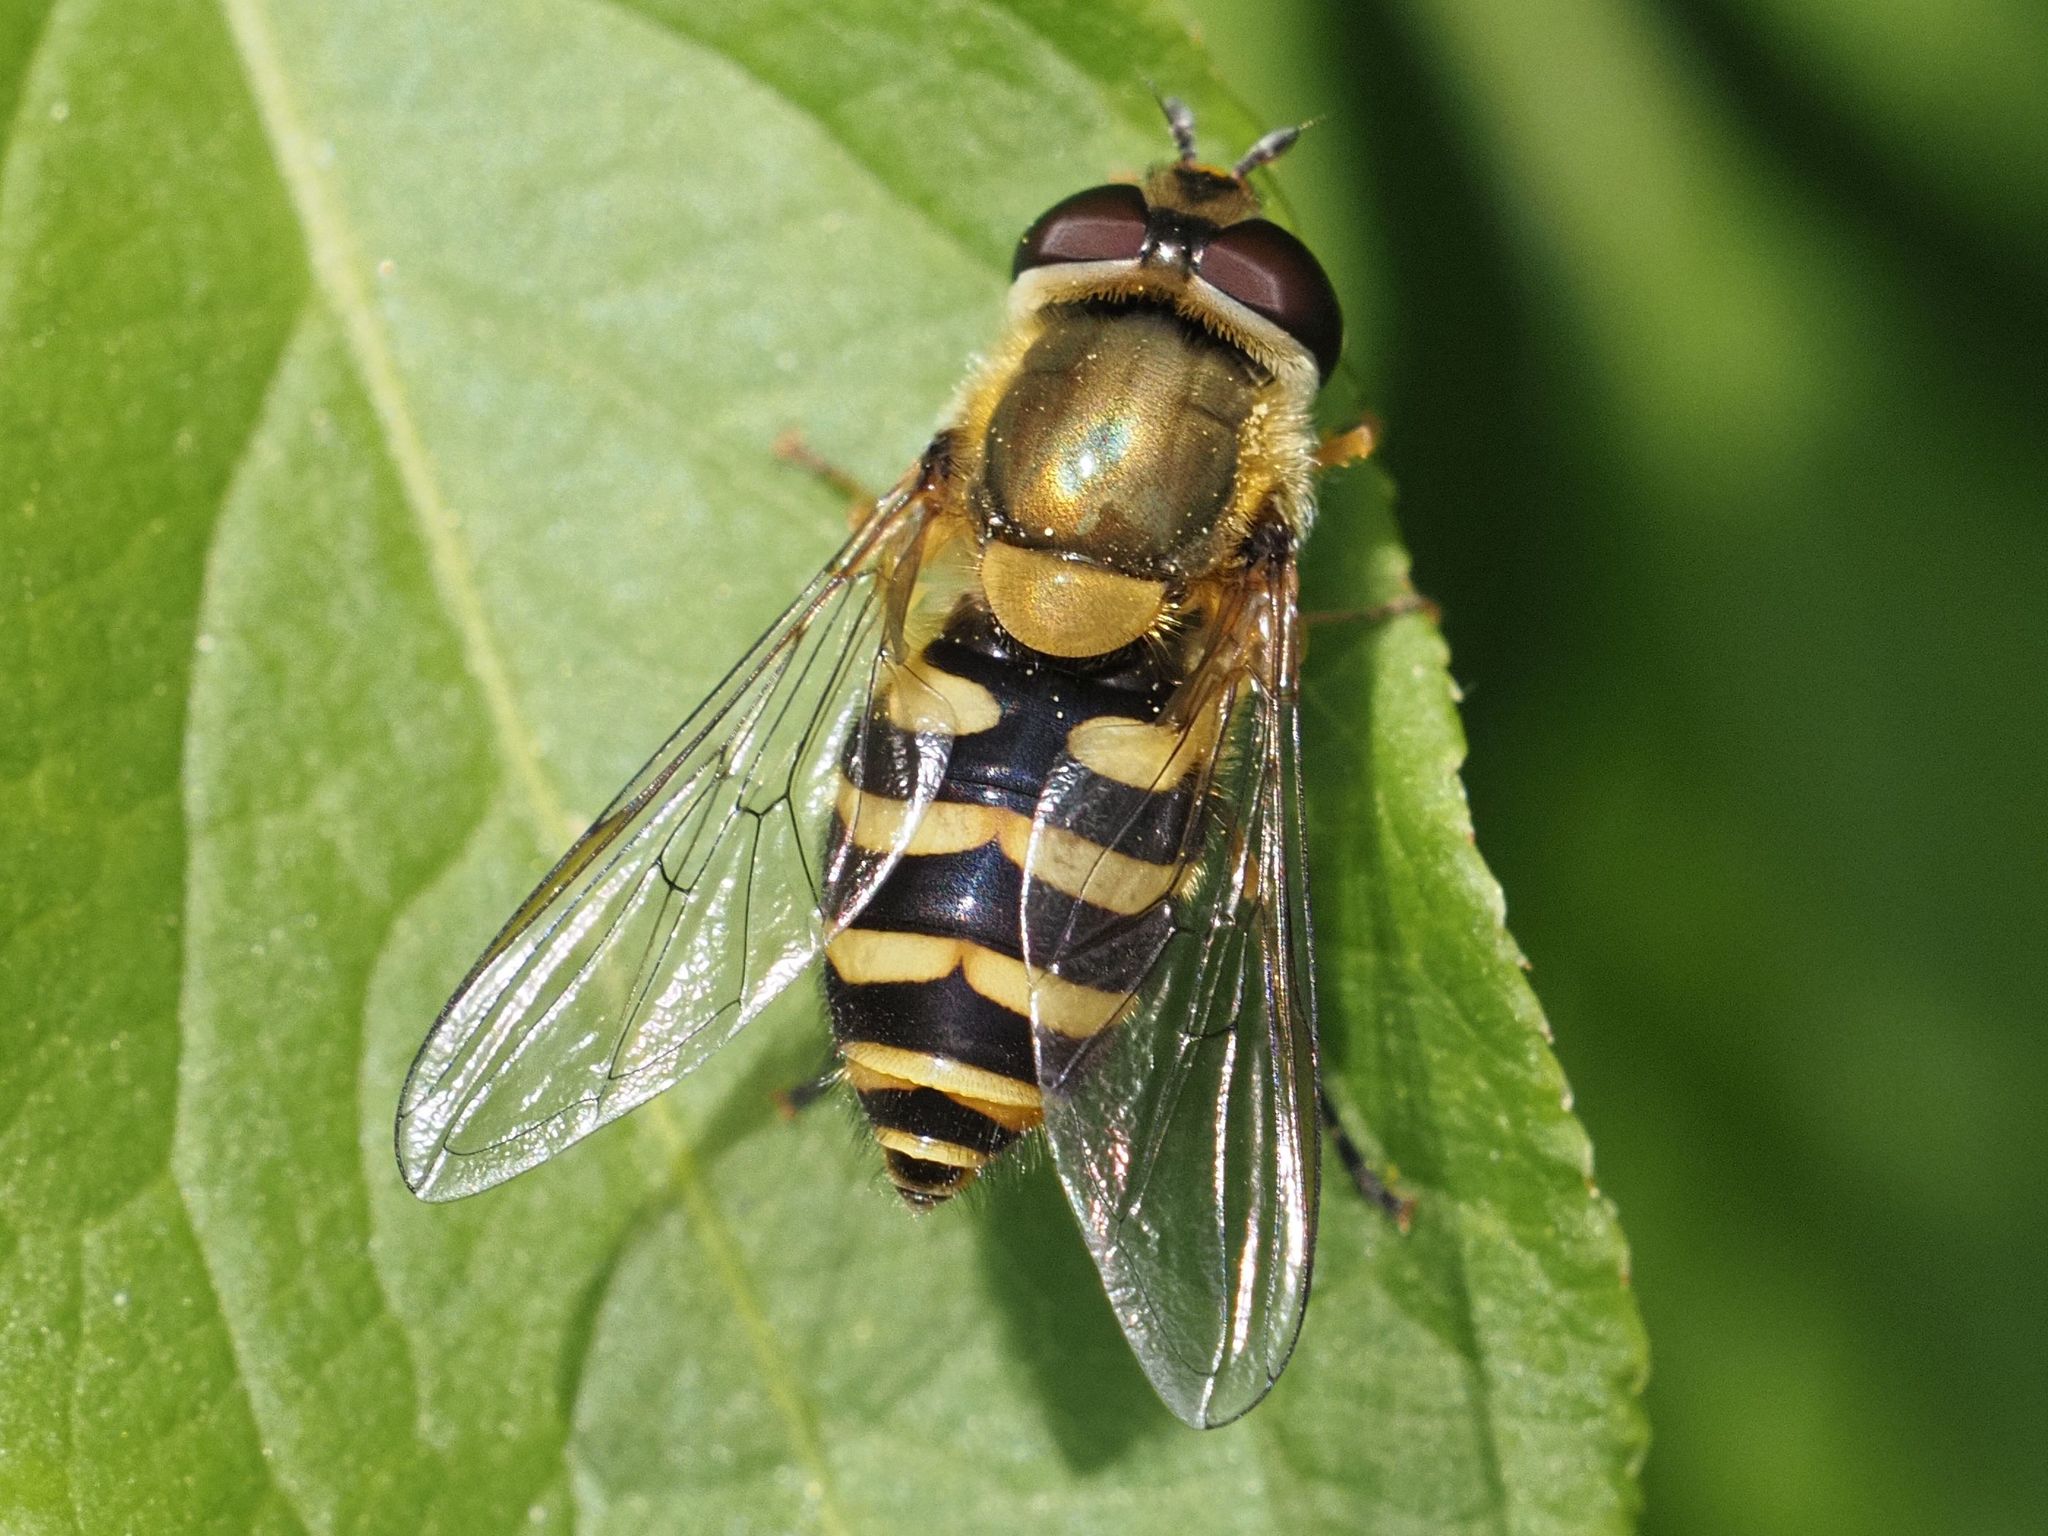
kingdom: Animalia
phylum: Arthropoda
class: Insecta
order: Diptera
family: Syrphidae
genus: Syrphus
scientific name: Syrphus
